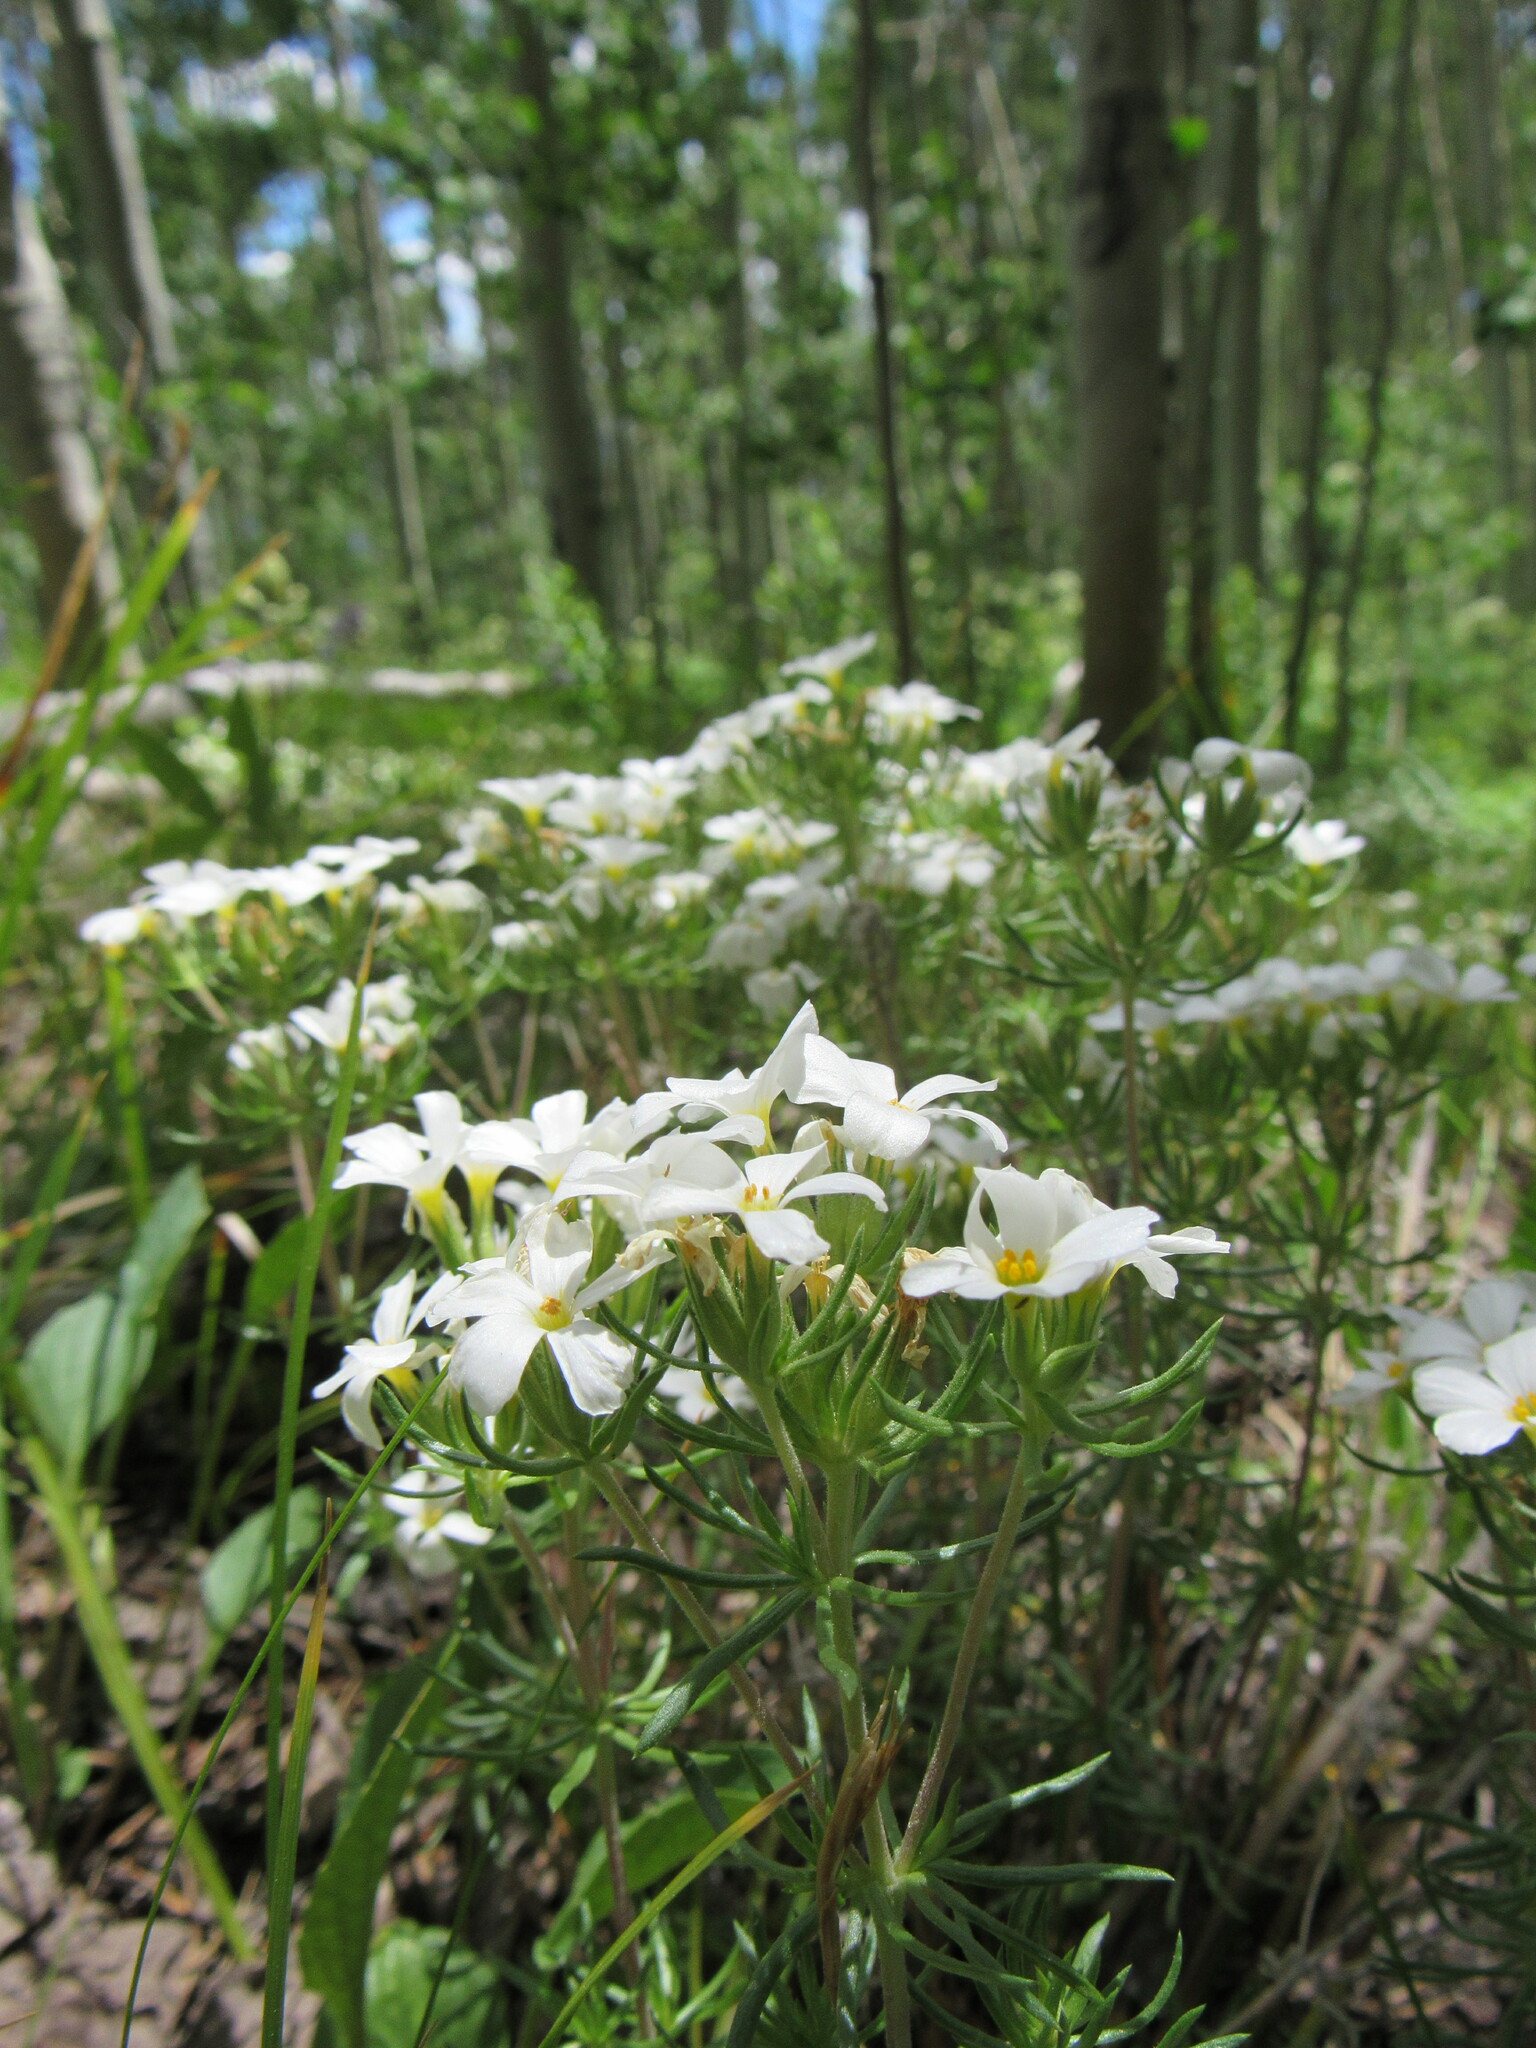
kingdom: Plantae
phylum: Tracheophyta
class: Magnoliopsida
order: Ericales
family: Polemoniaceae
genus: Leptosiphon
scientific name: Leptosiphon nuttallii
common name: Nuttall's linanthus
